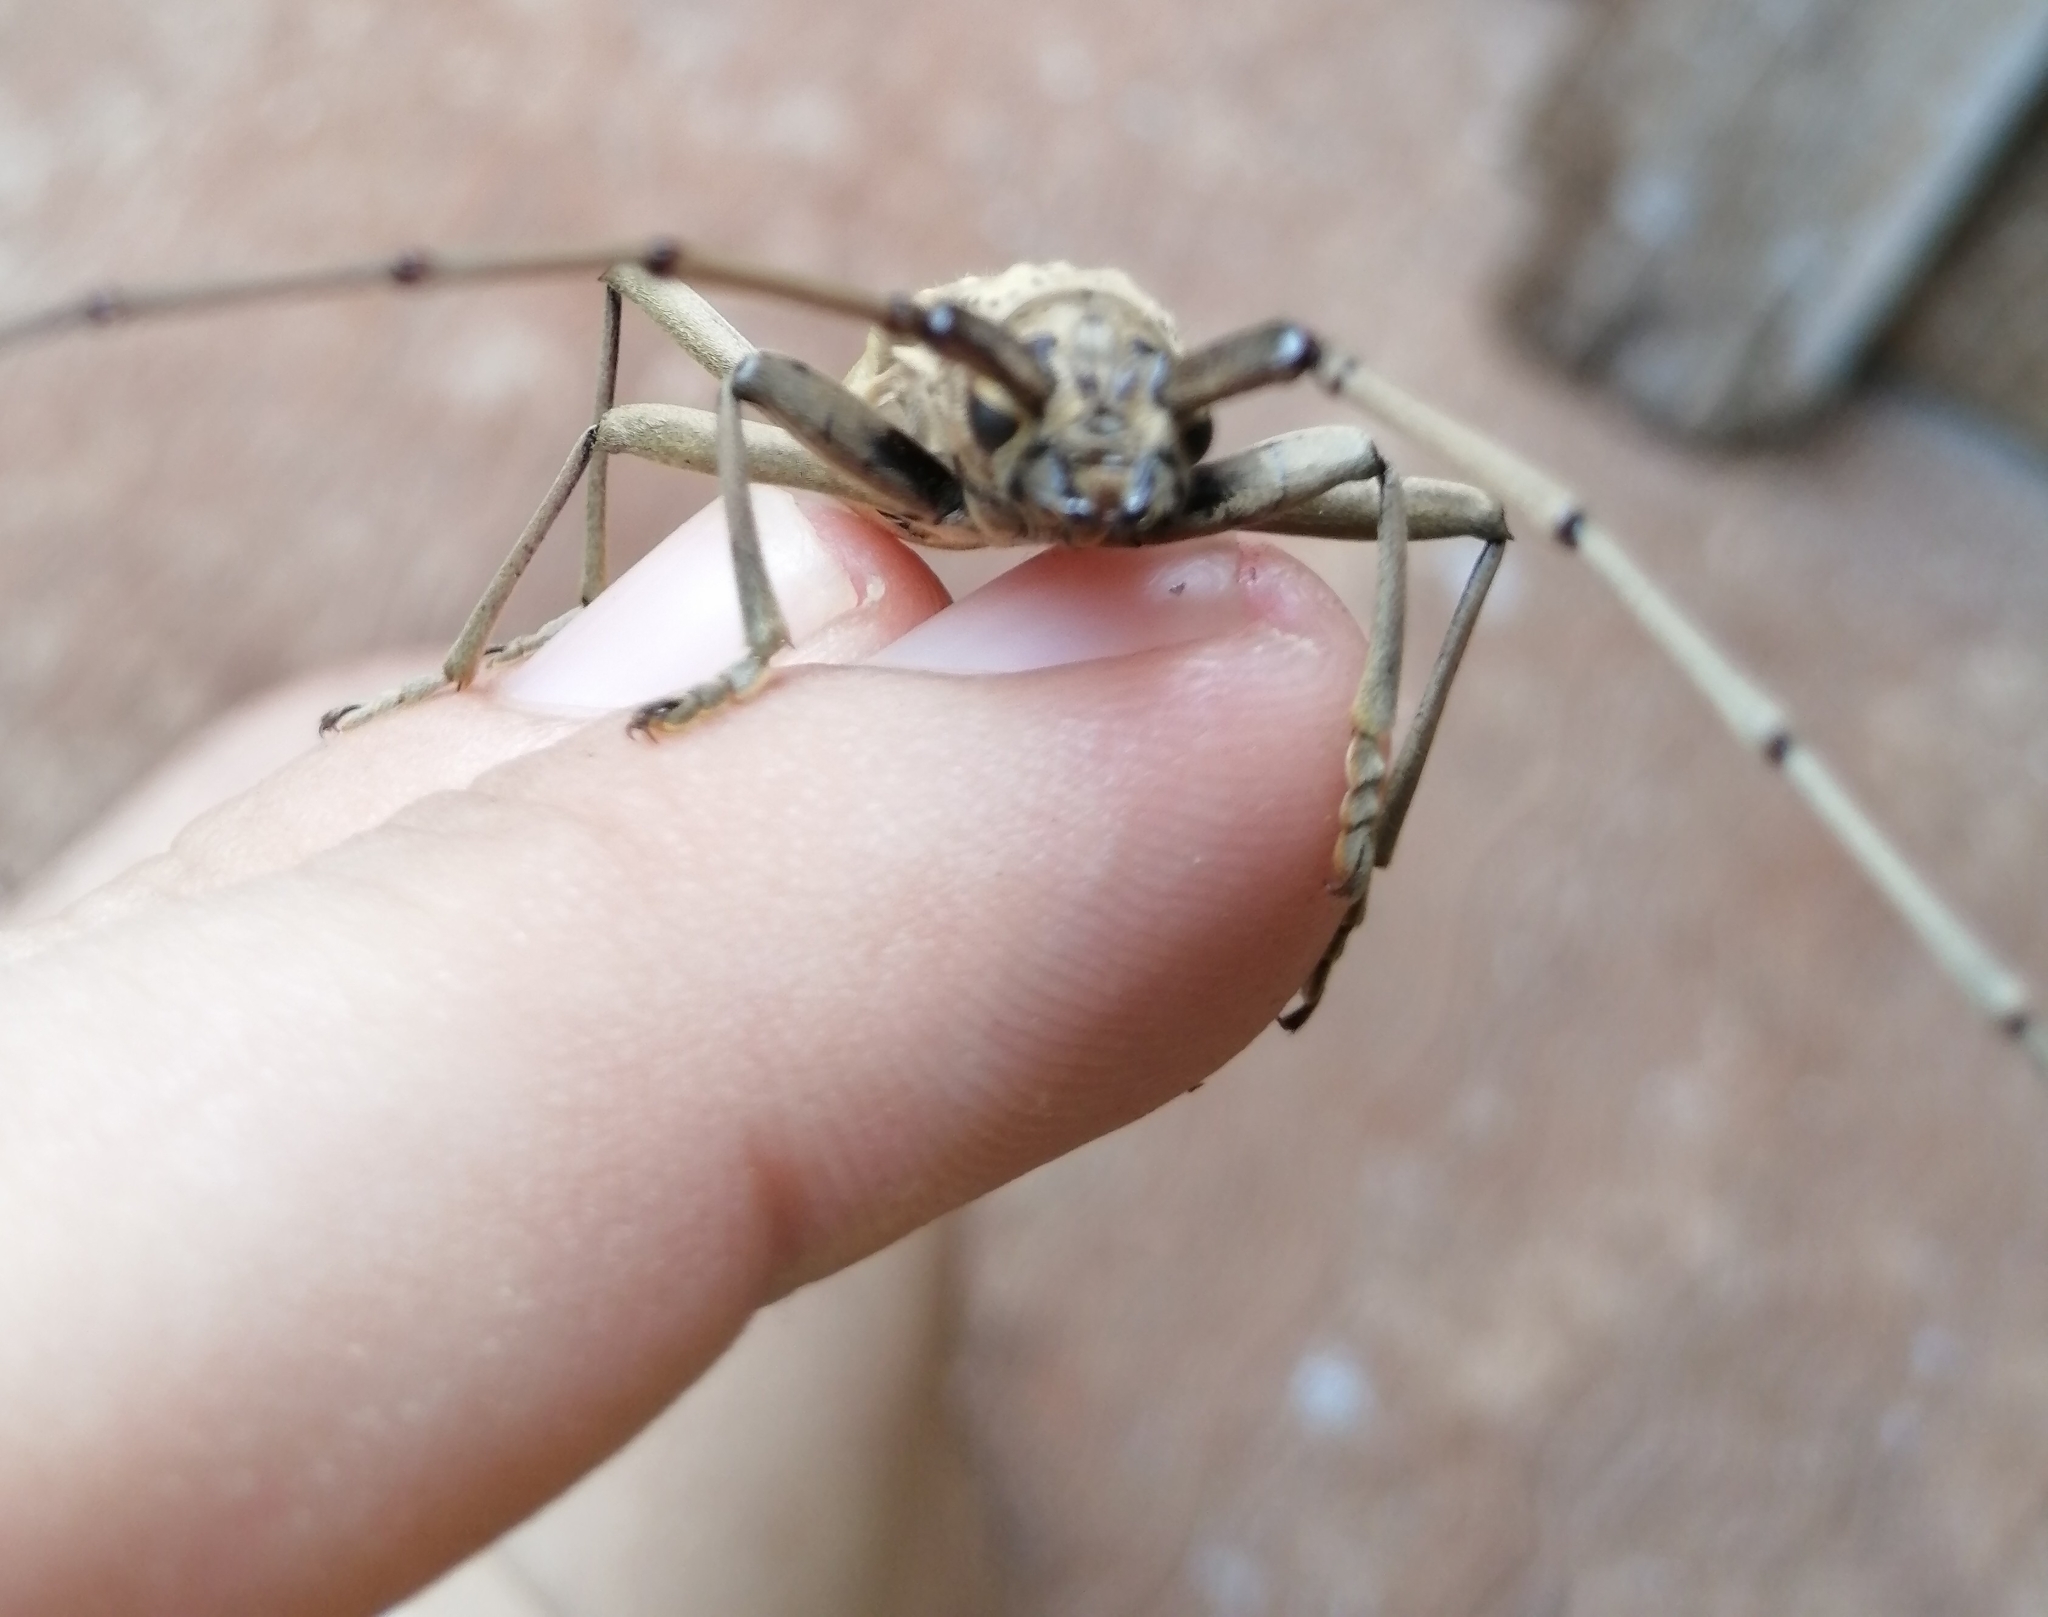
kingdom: Animalia
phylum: Arthropoda
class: Insecta
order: Coleoptera
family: Cerambycidae
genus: Susuacanga
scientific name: Susuacanga stigmatica
